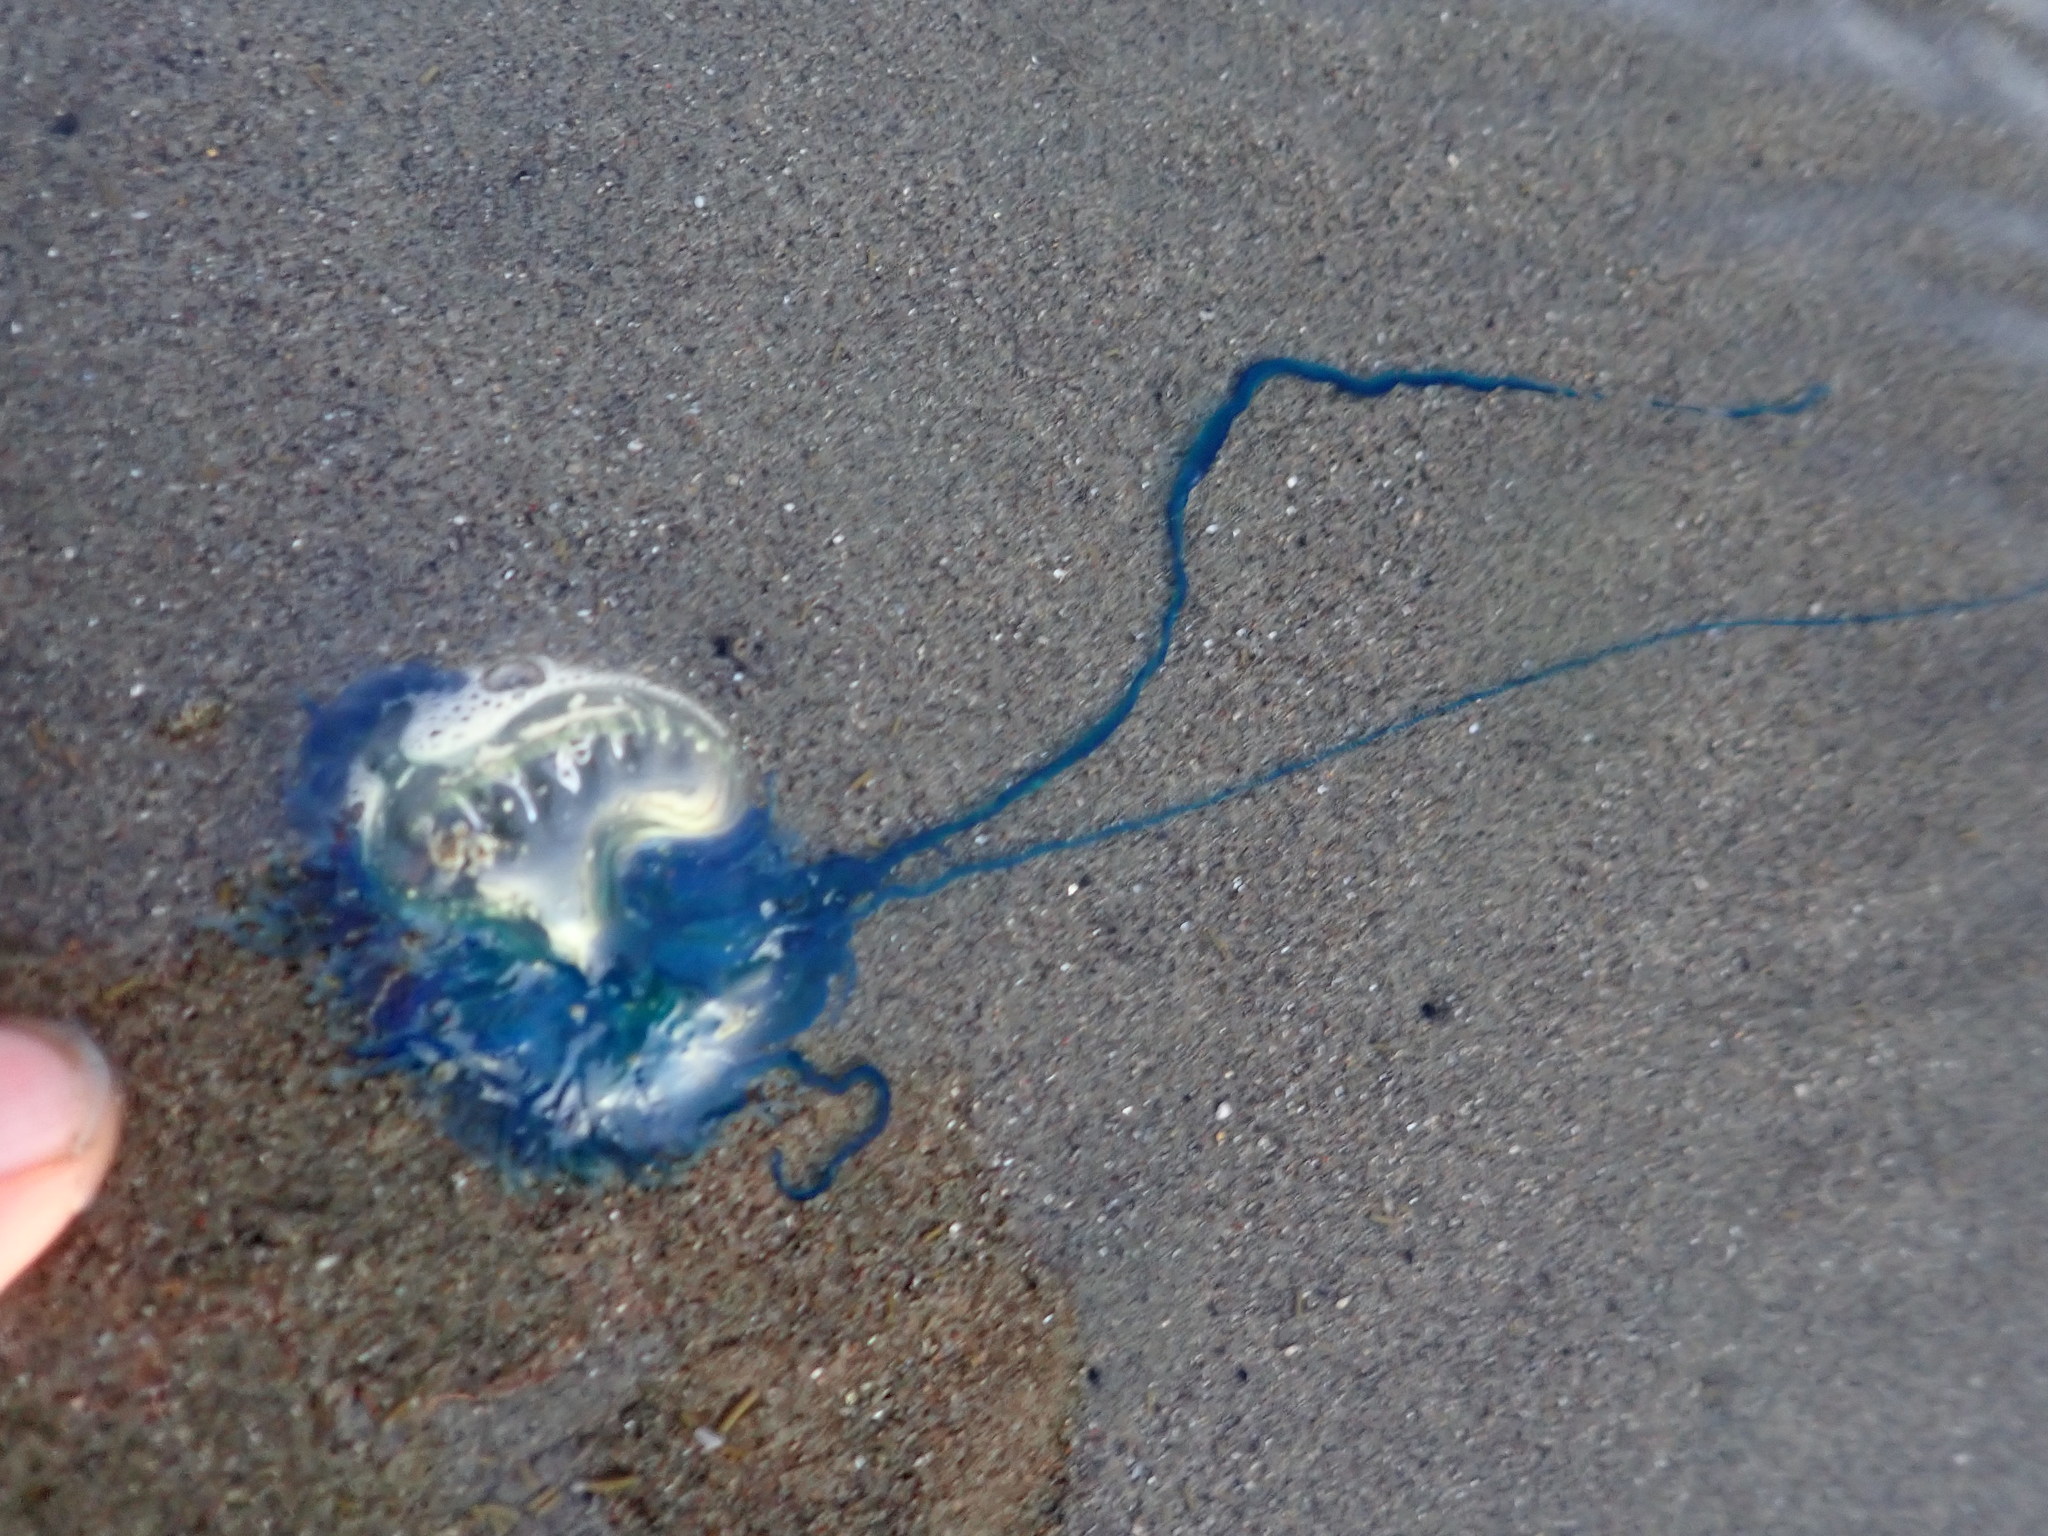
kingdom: Animalia
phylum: Cnidaria
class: Hydrozoa
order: Siphonophorae
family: Physaliidae
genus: Physalia
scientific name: Physalia physalis
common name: Portuguese man-of-war
